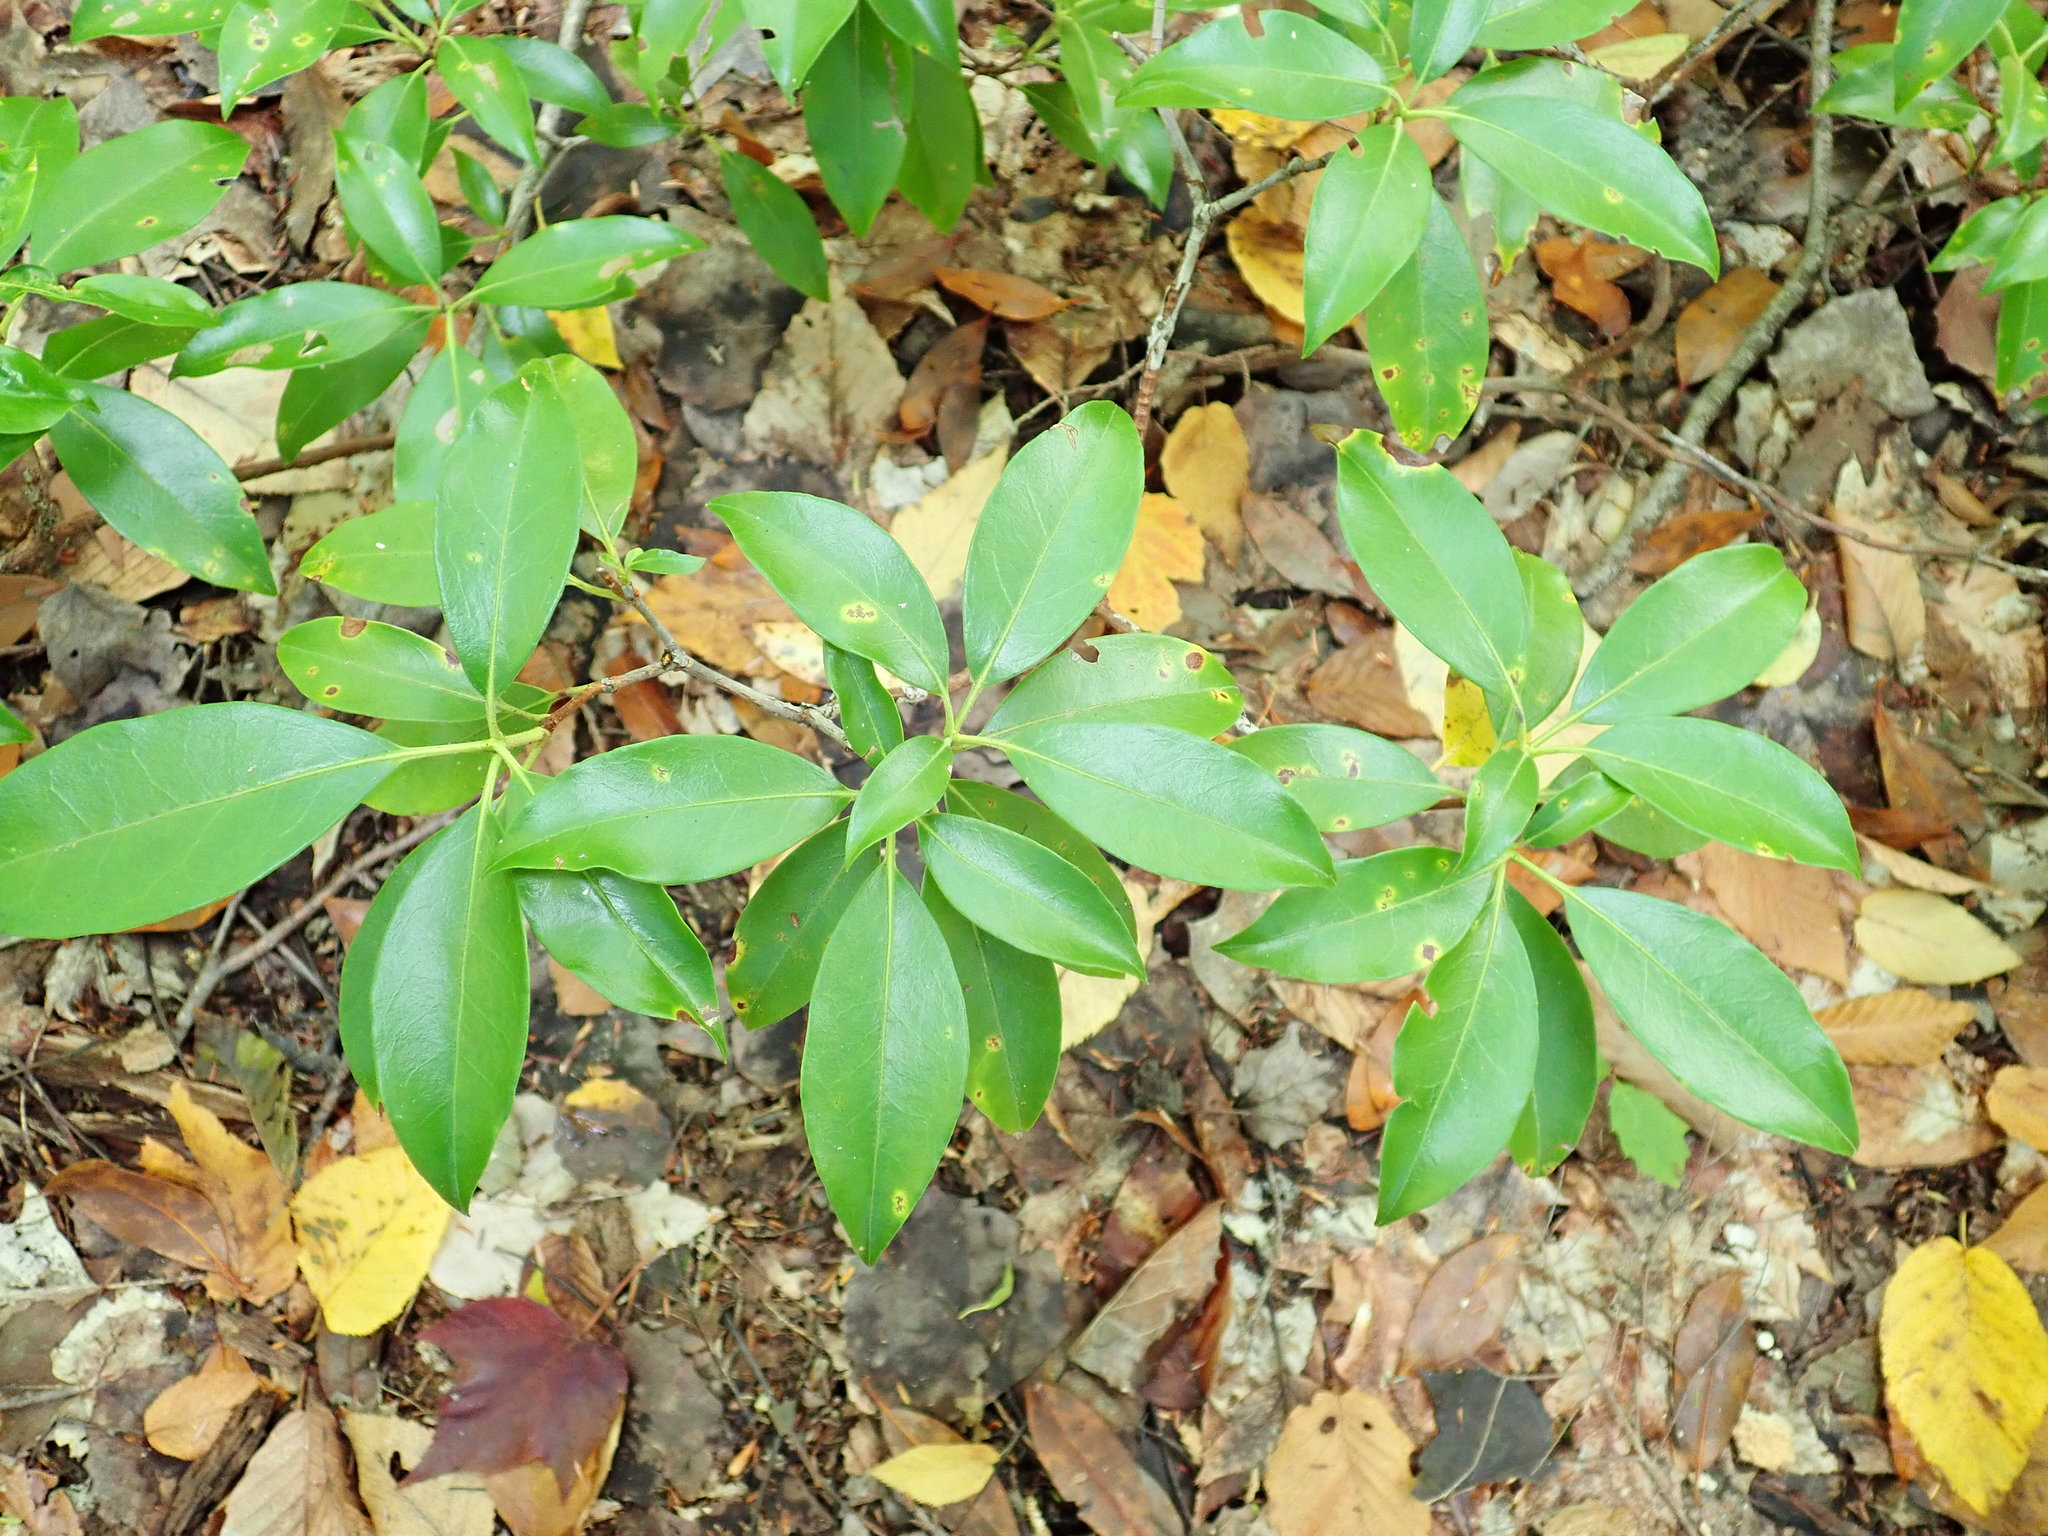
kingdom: Plantae
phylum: Tracheophyta
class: Magnoliopsida
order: Ericales
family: Ericaceae
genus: Kalmia
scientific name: Kalmia latifolia
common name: Mountain-laurel
